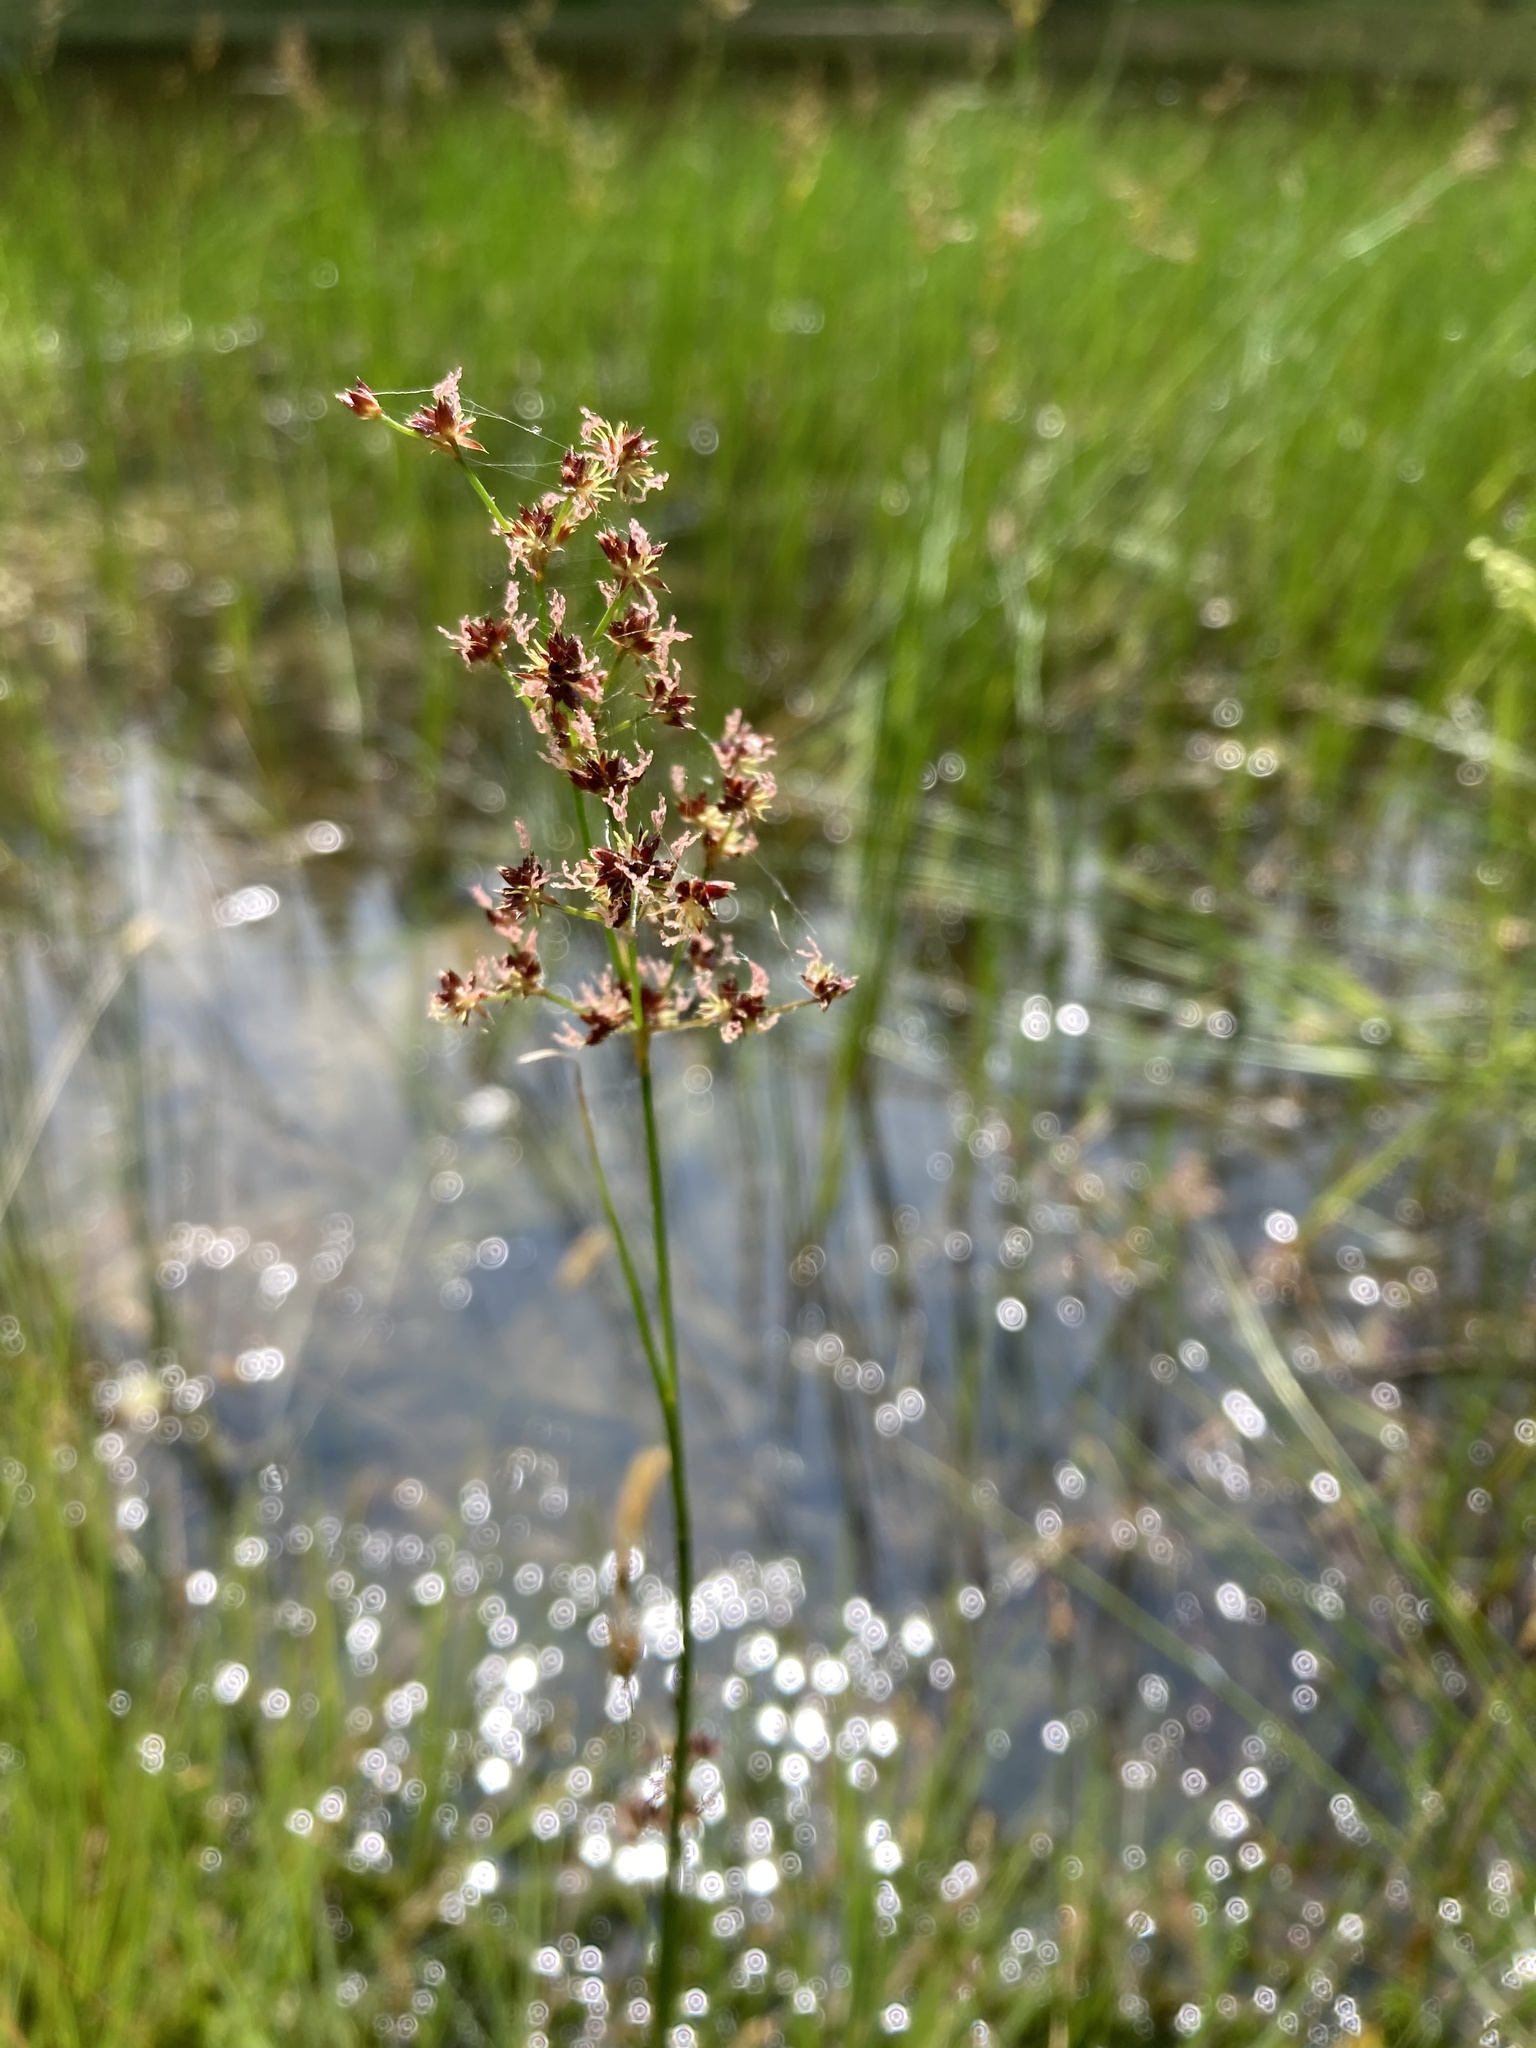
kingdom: Plantae
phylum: Tracheophyta
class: Liliopsida
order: Poales
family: Juncaceae
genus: Juncus
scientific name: Juncus acutiflorus
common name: Sharp-flowered rush
